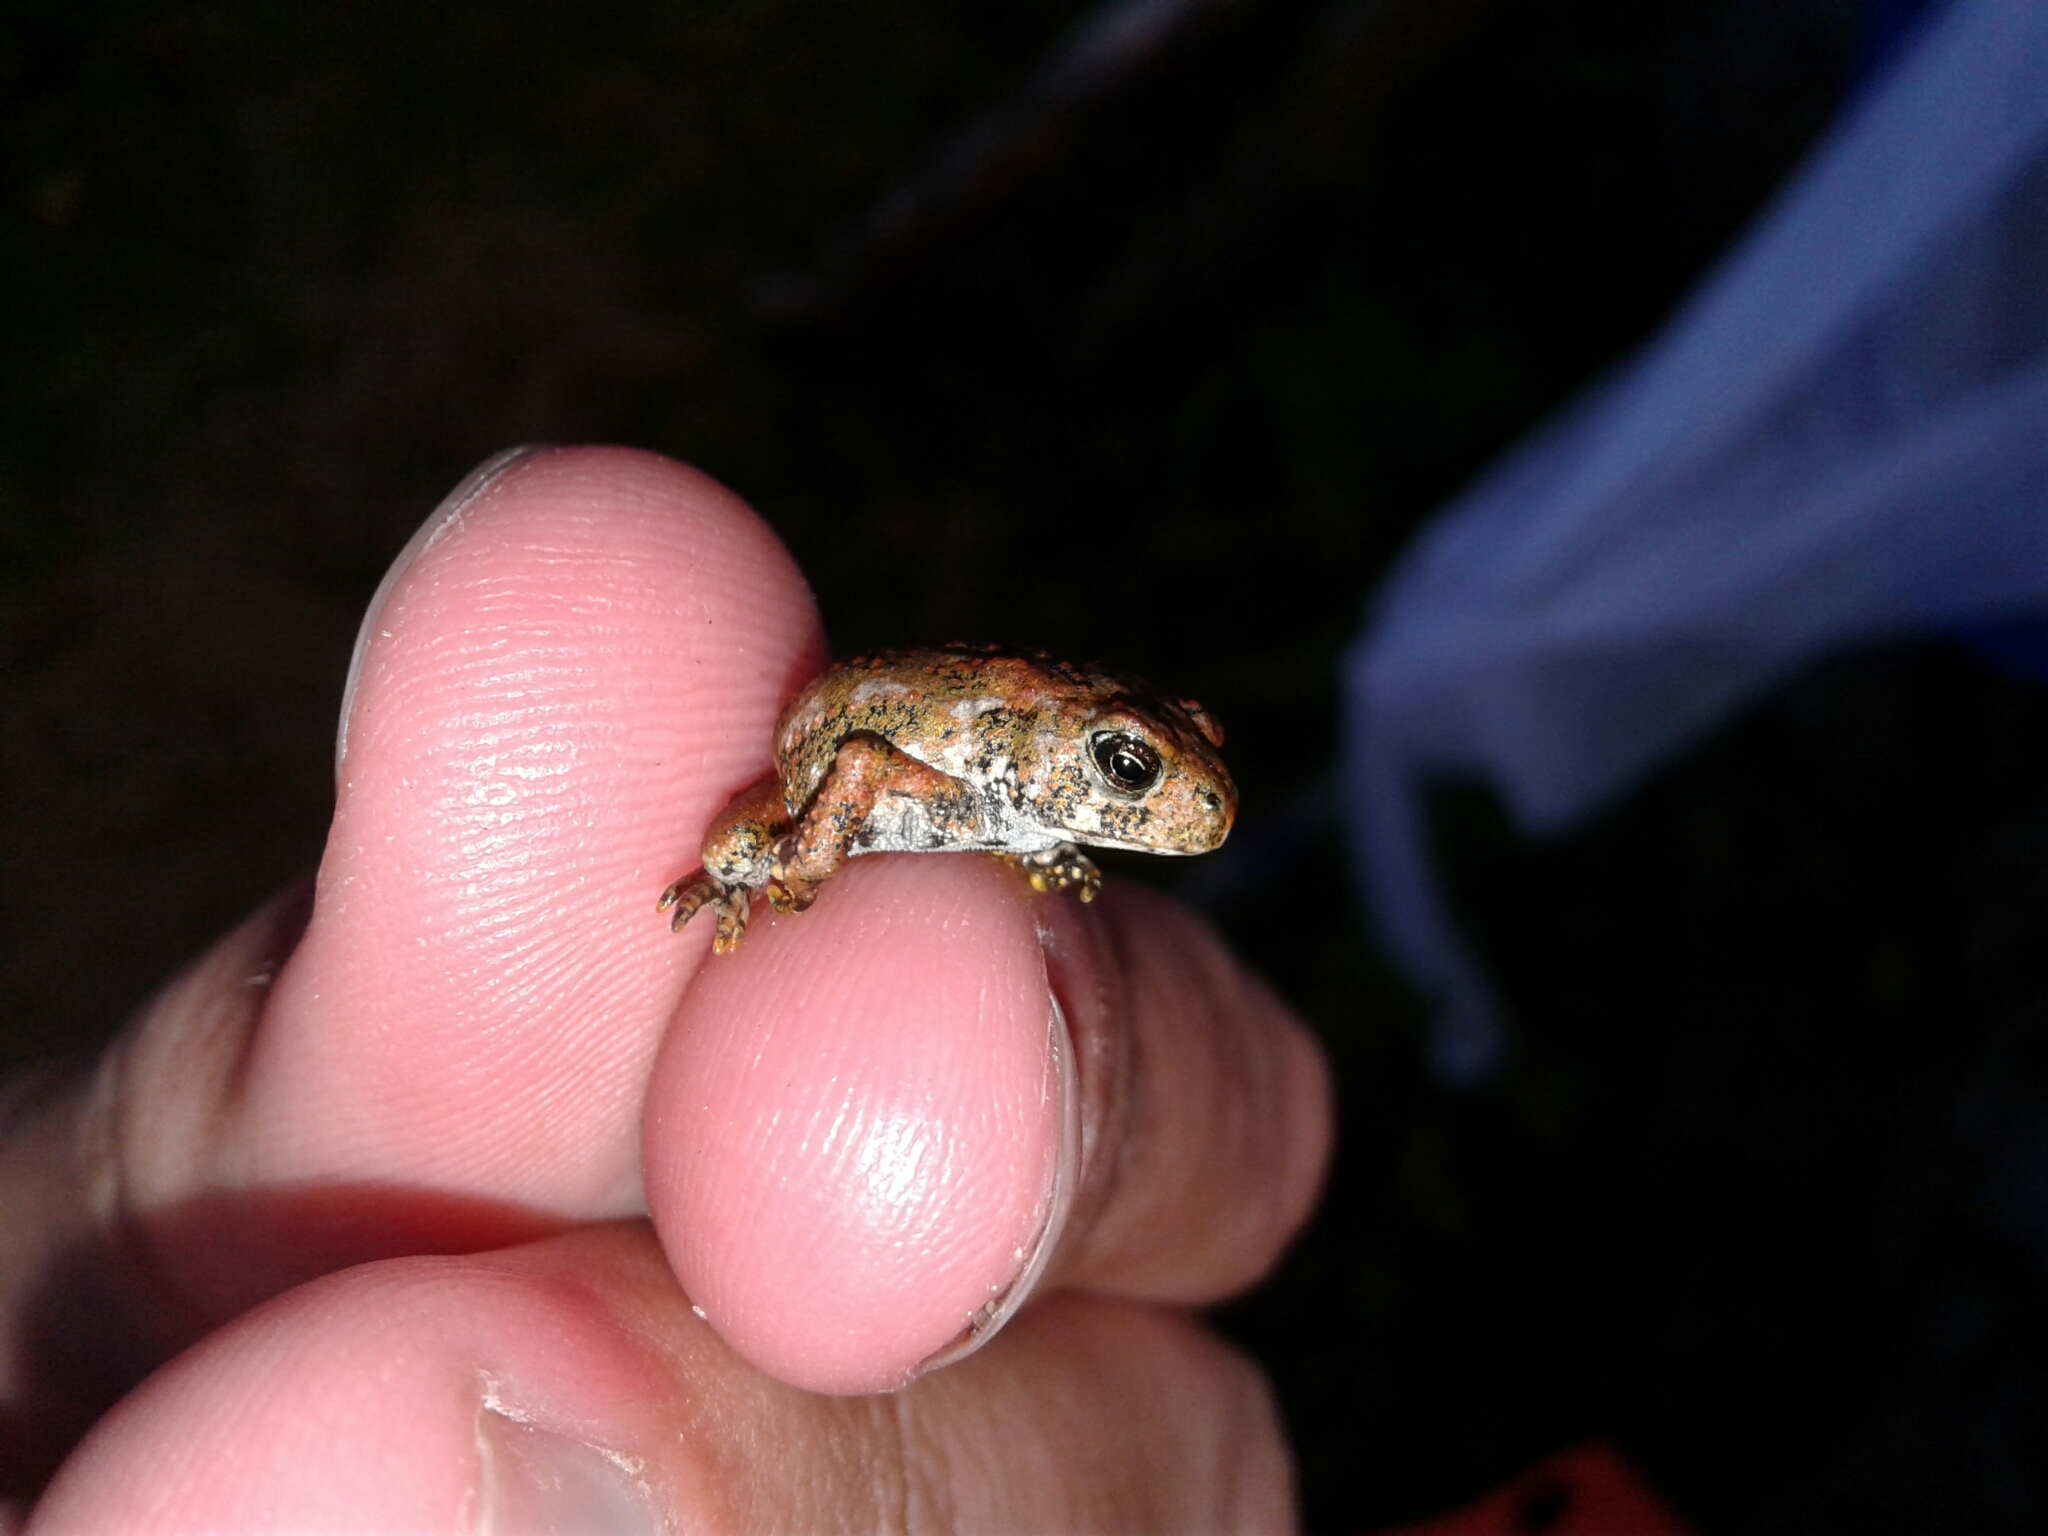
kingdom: Animalia
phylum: Chordata
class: Amphibia
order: Anura
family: Bufonidae
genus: Anaxyrus
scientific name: Anaxyrus americanus
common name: American toad
